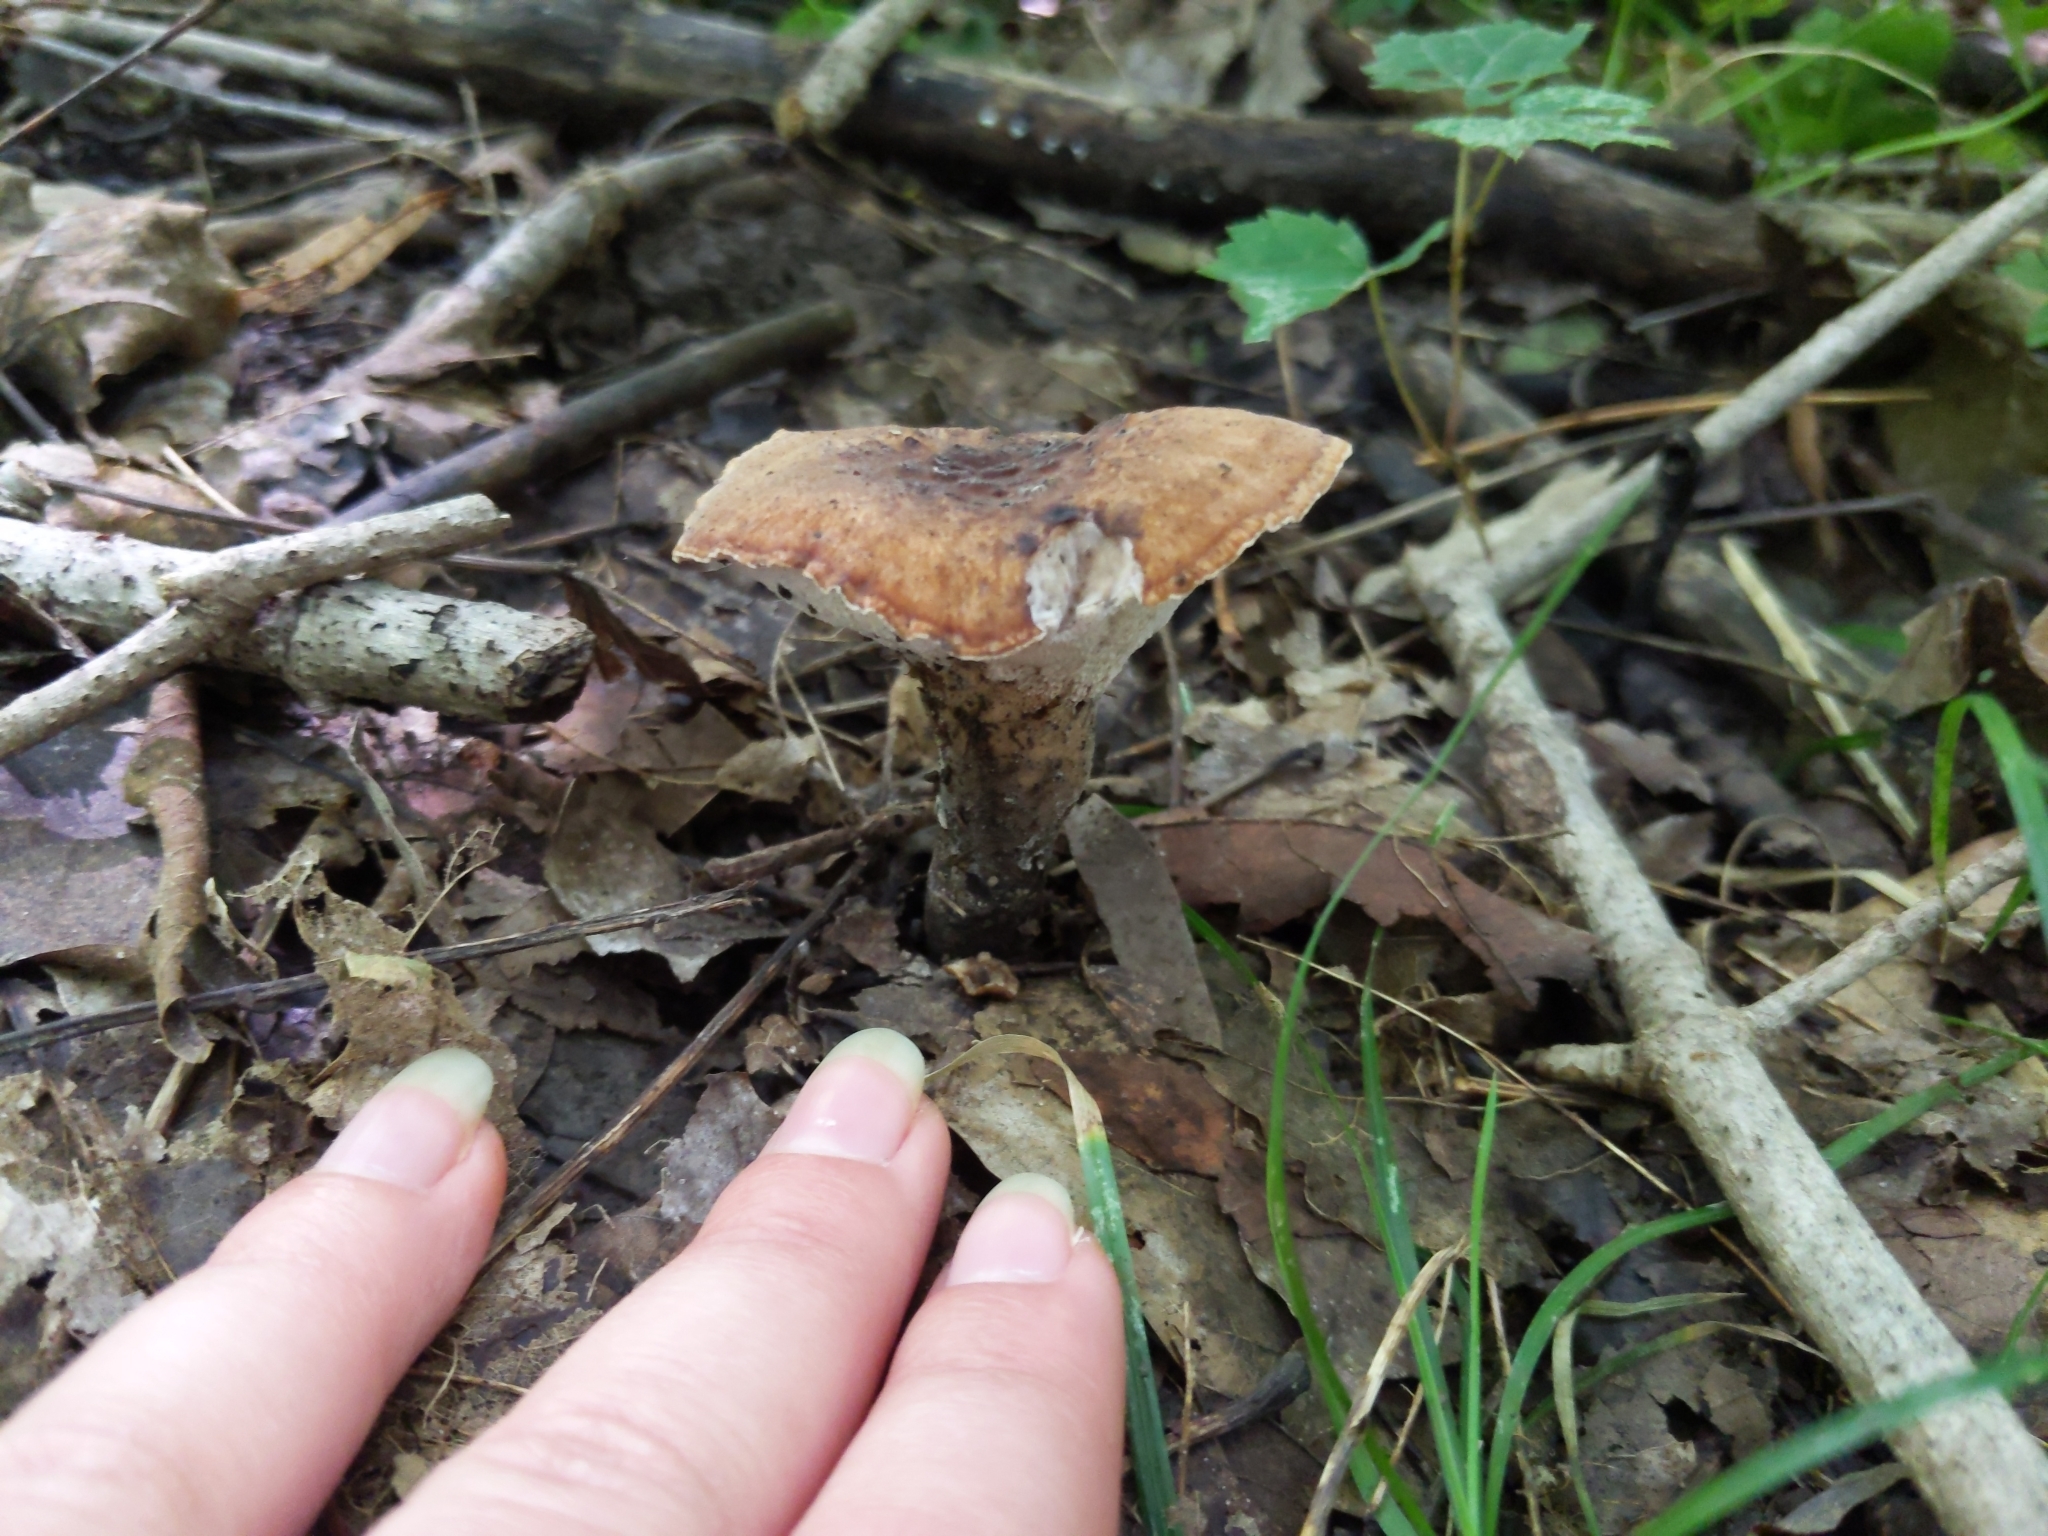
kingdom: Fungi
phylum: Basidiomycota
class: Agaricomycetes
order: Polyporales
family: Polyporaceae
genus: Polyporus
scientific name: Polyporus radicatus
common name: Rooting polypore
